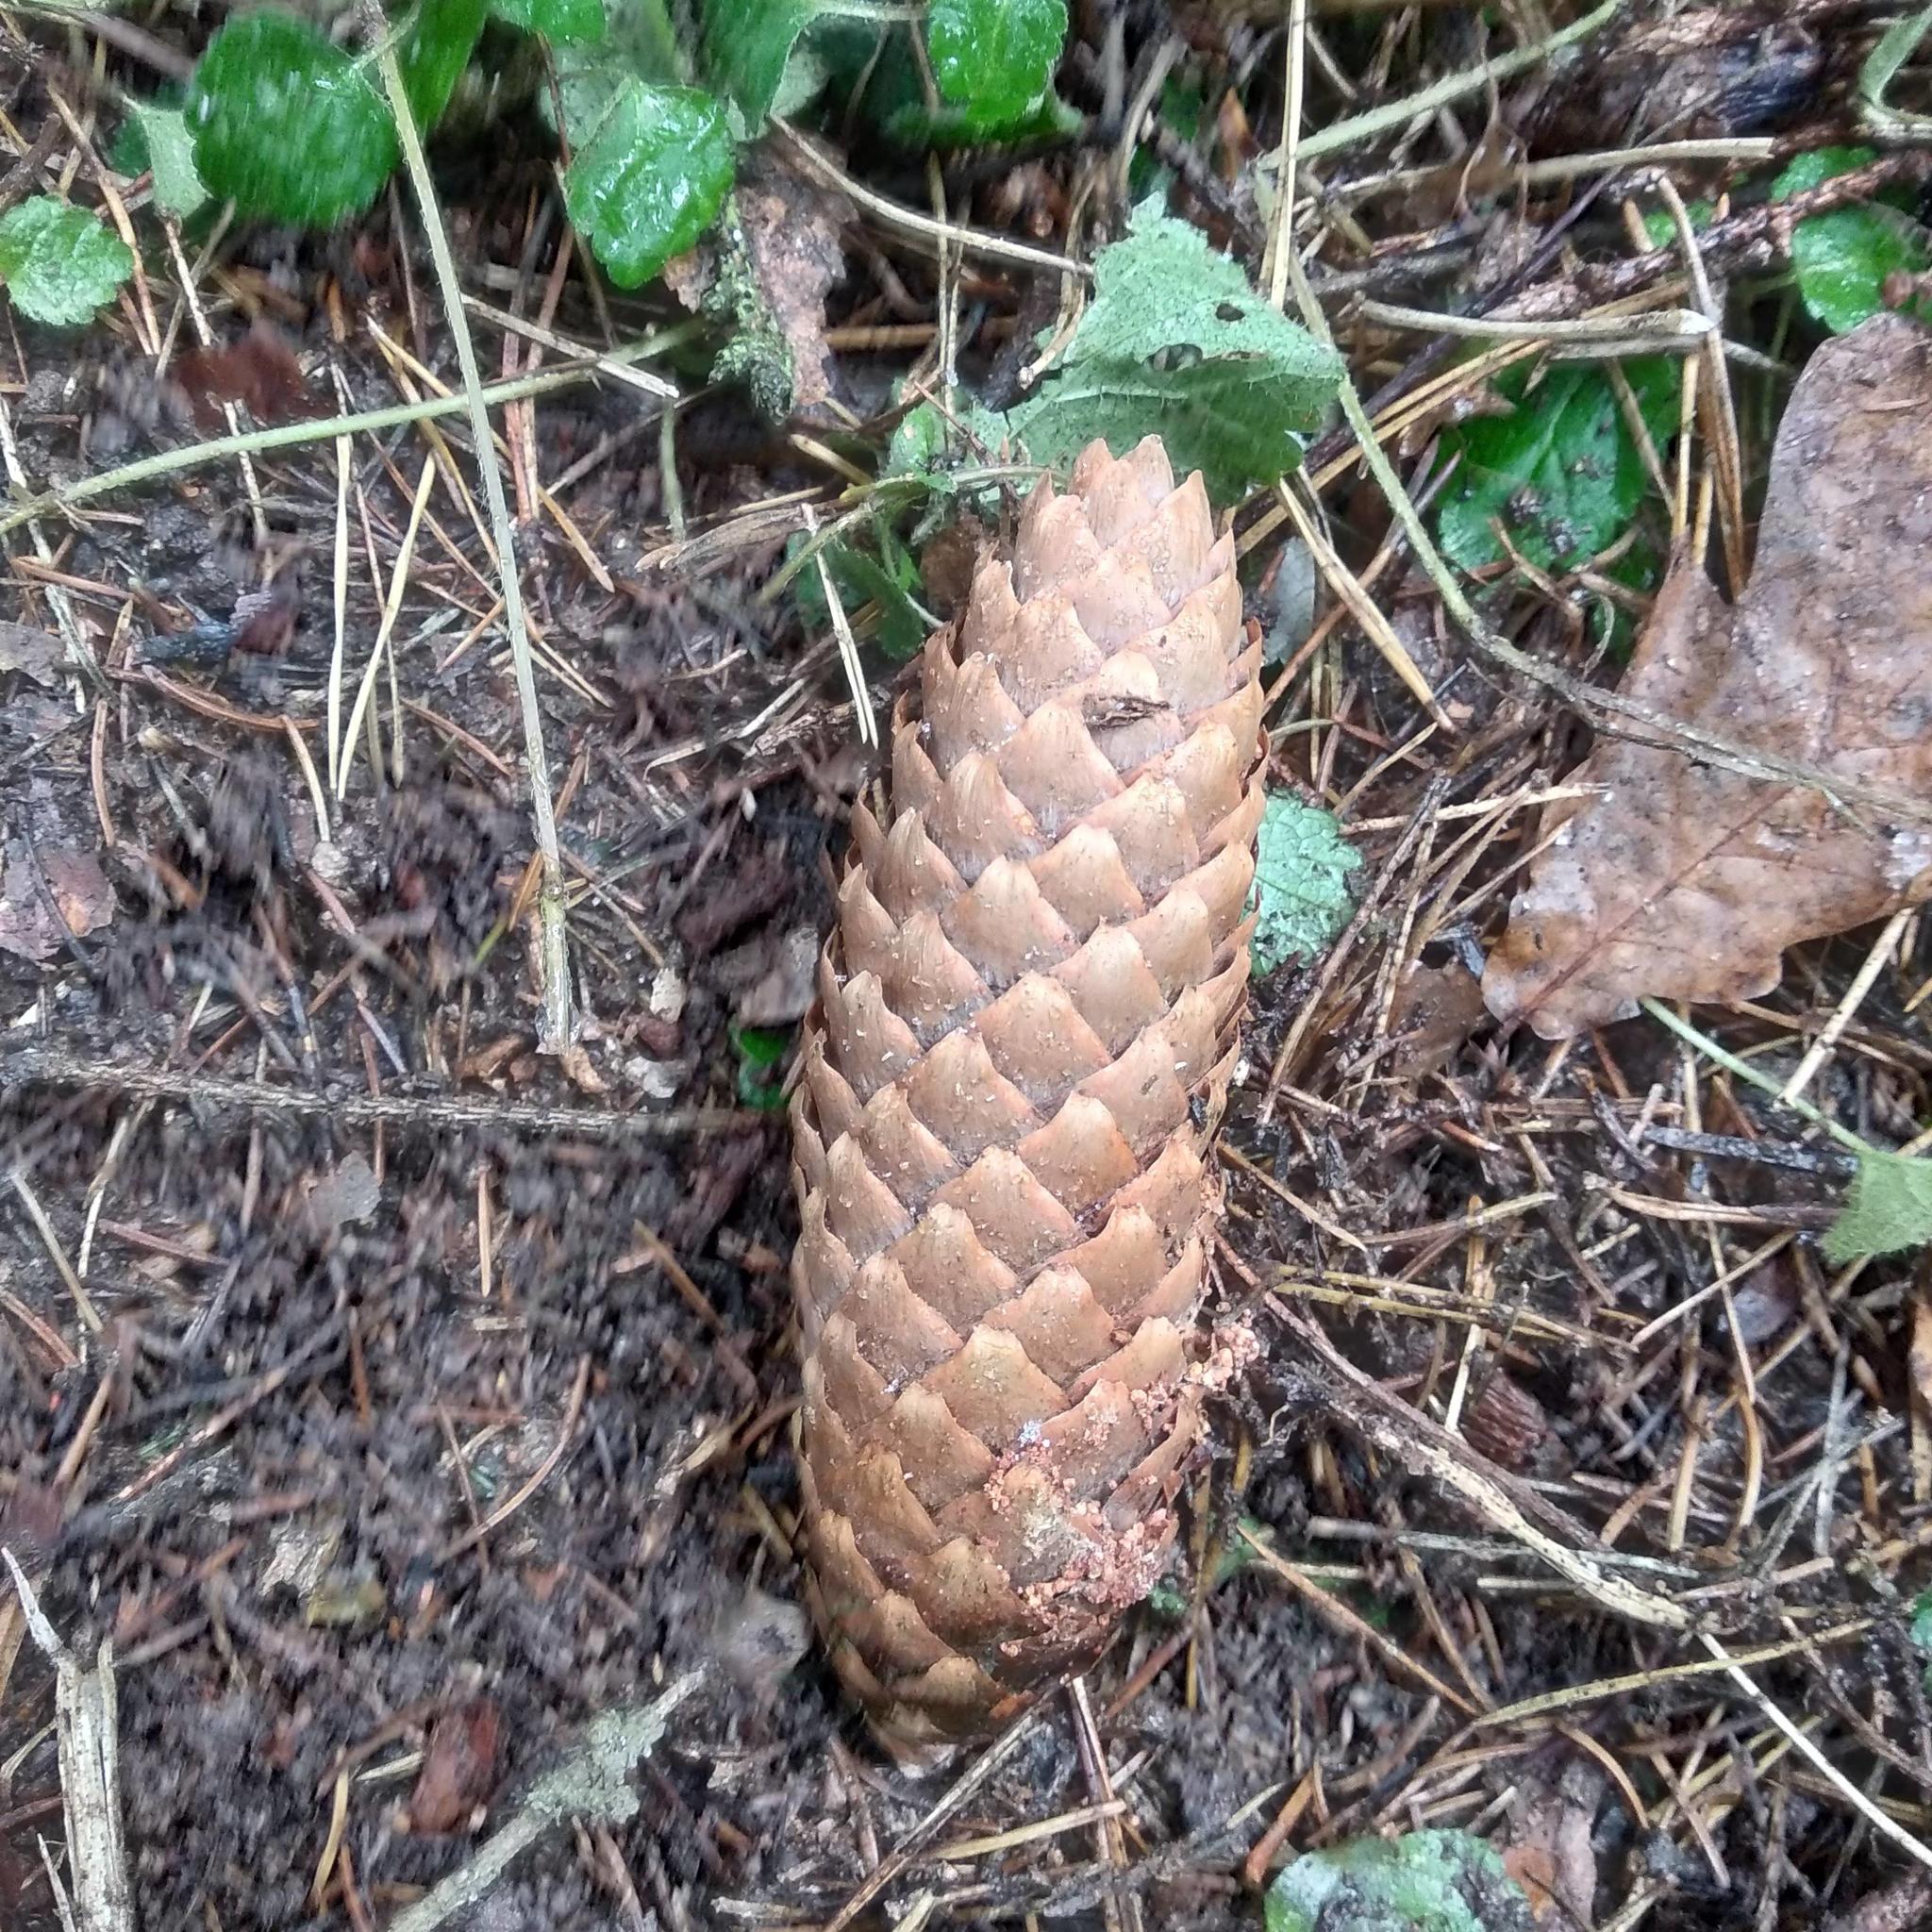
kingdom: Plantae
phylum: Tracheophyta
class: Pinopsida
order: Pinales
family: Pinaceae
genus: Picea
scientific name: Picea abies
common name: Norway spruce
